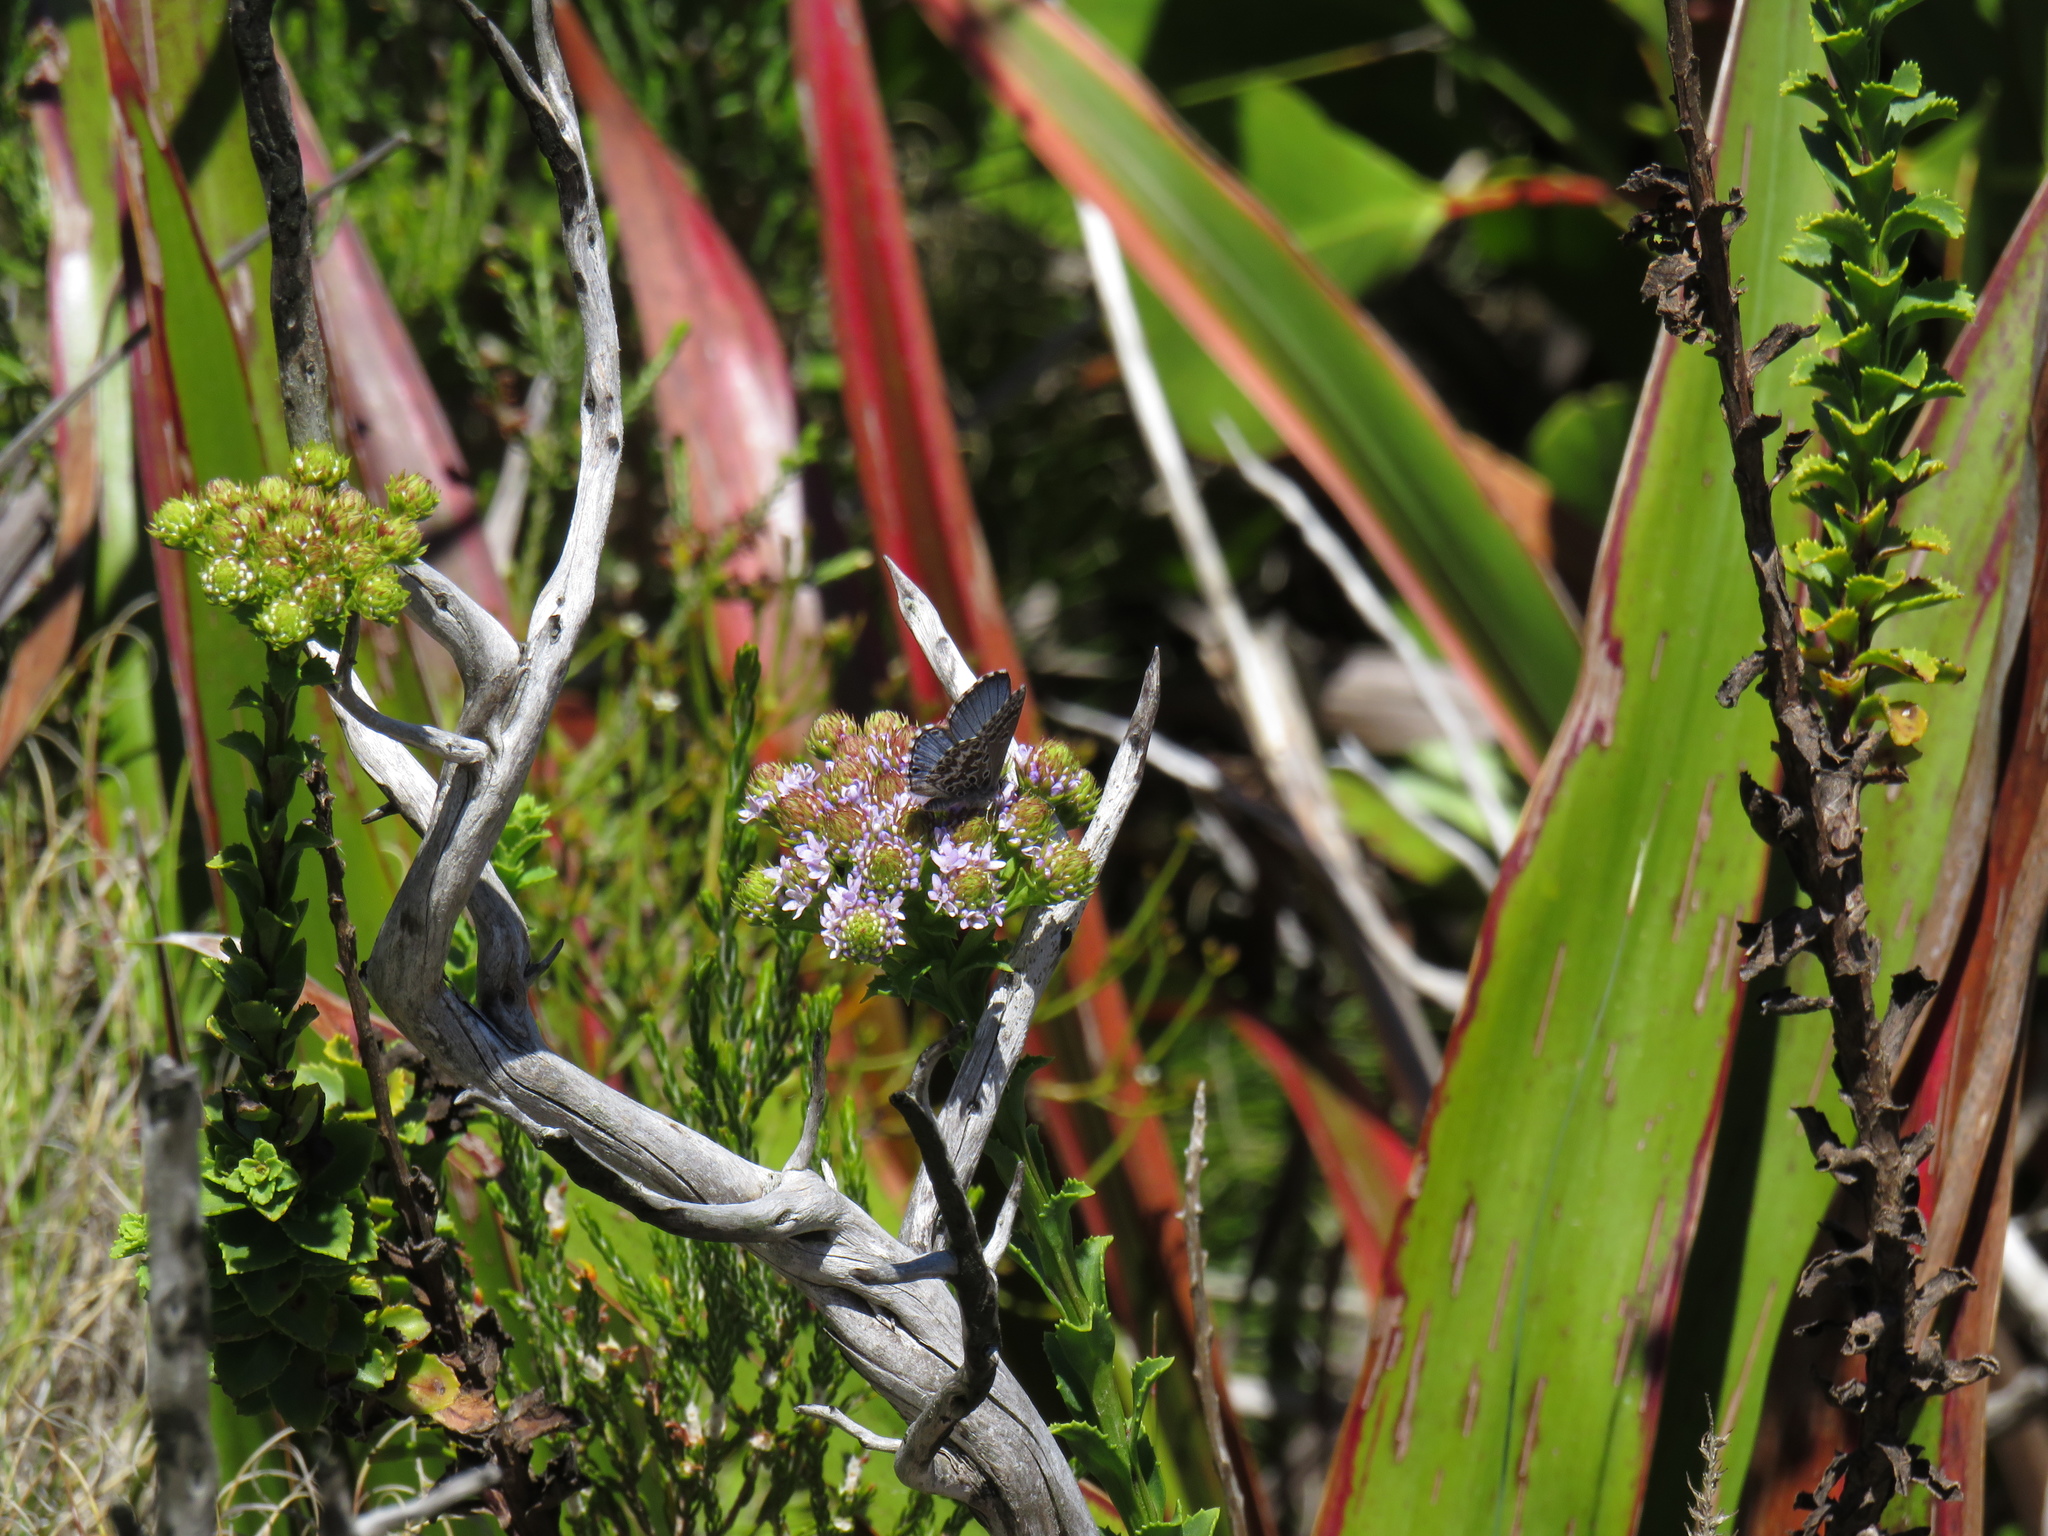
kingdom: Plantae
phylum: Tracheophyta
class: Magnoliopsida
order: Lamiales
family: Scrophulariaceae
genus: Pseudoselago
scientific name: Pseudoselago serrata
